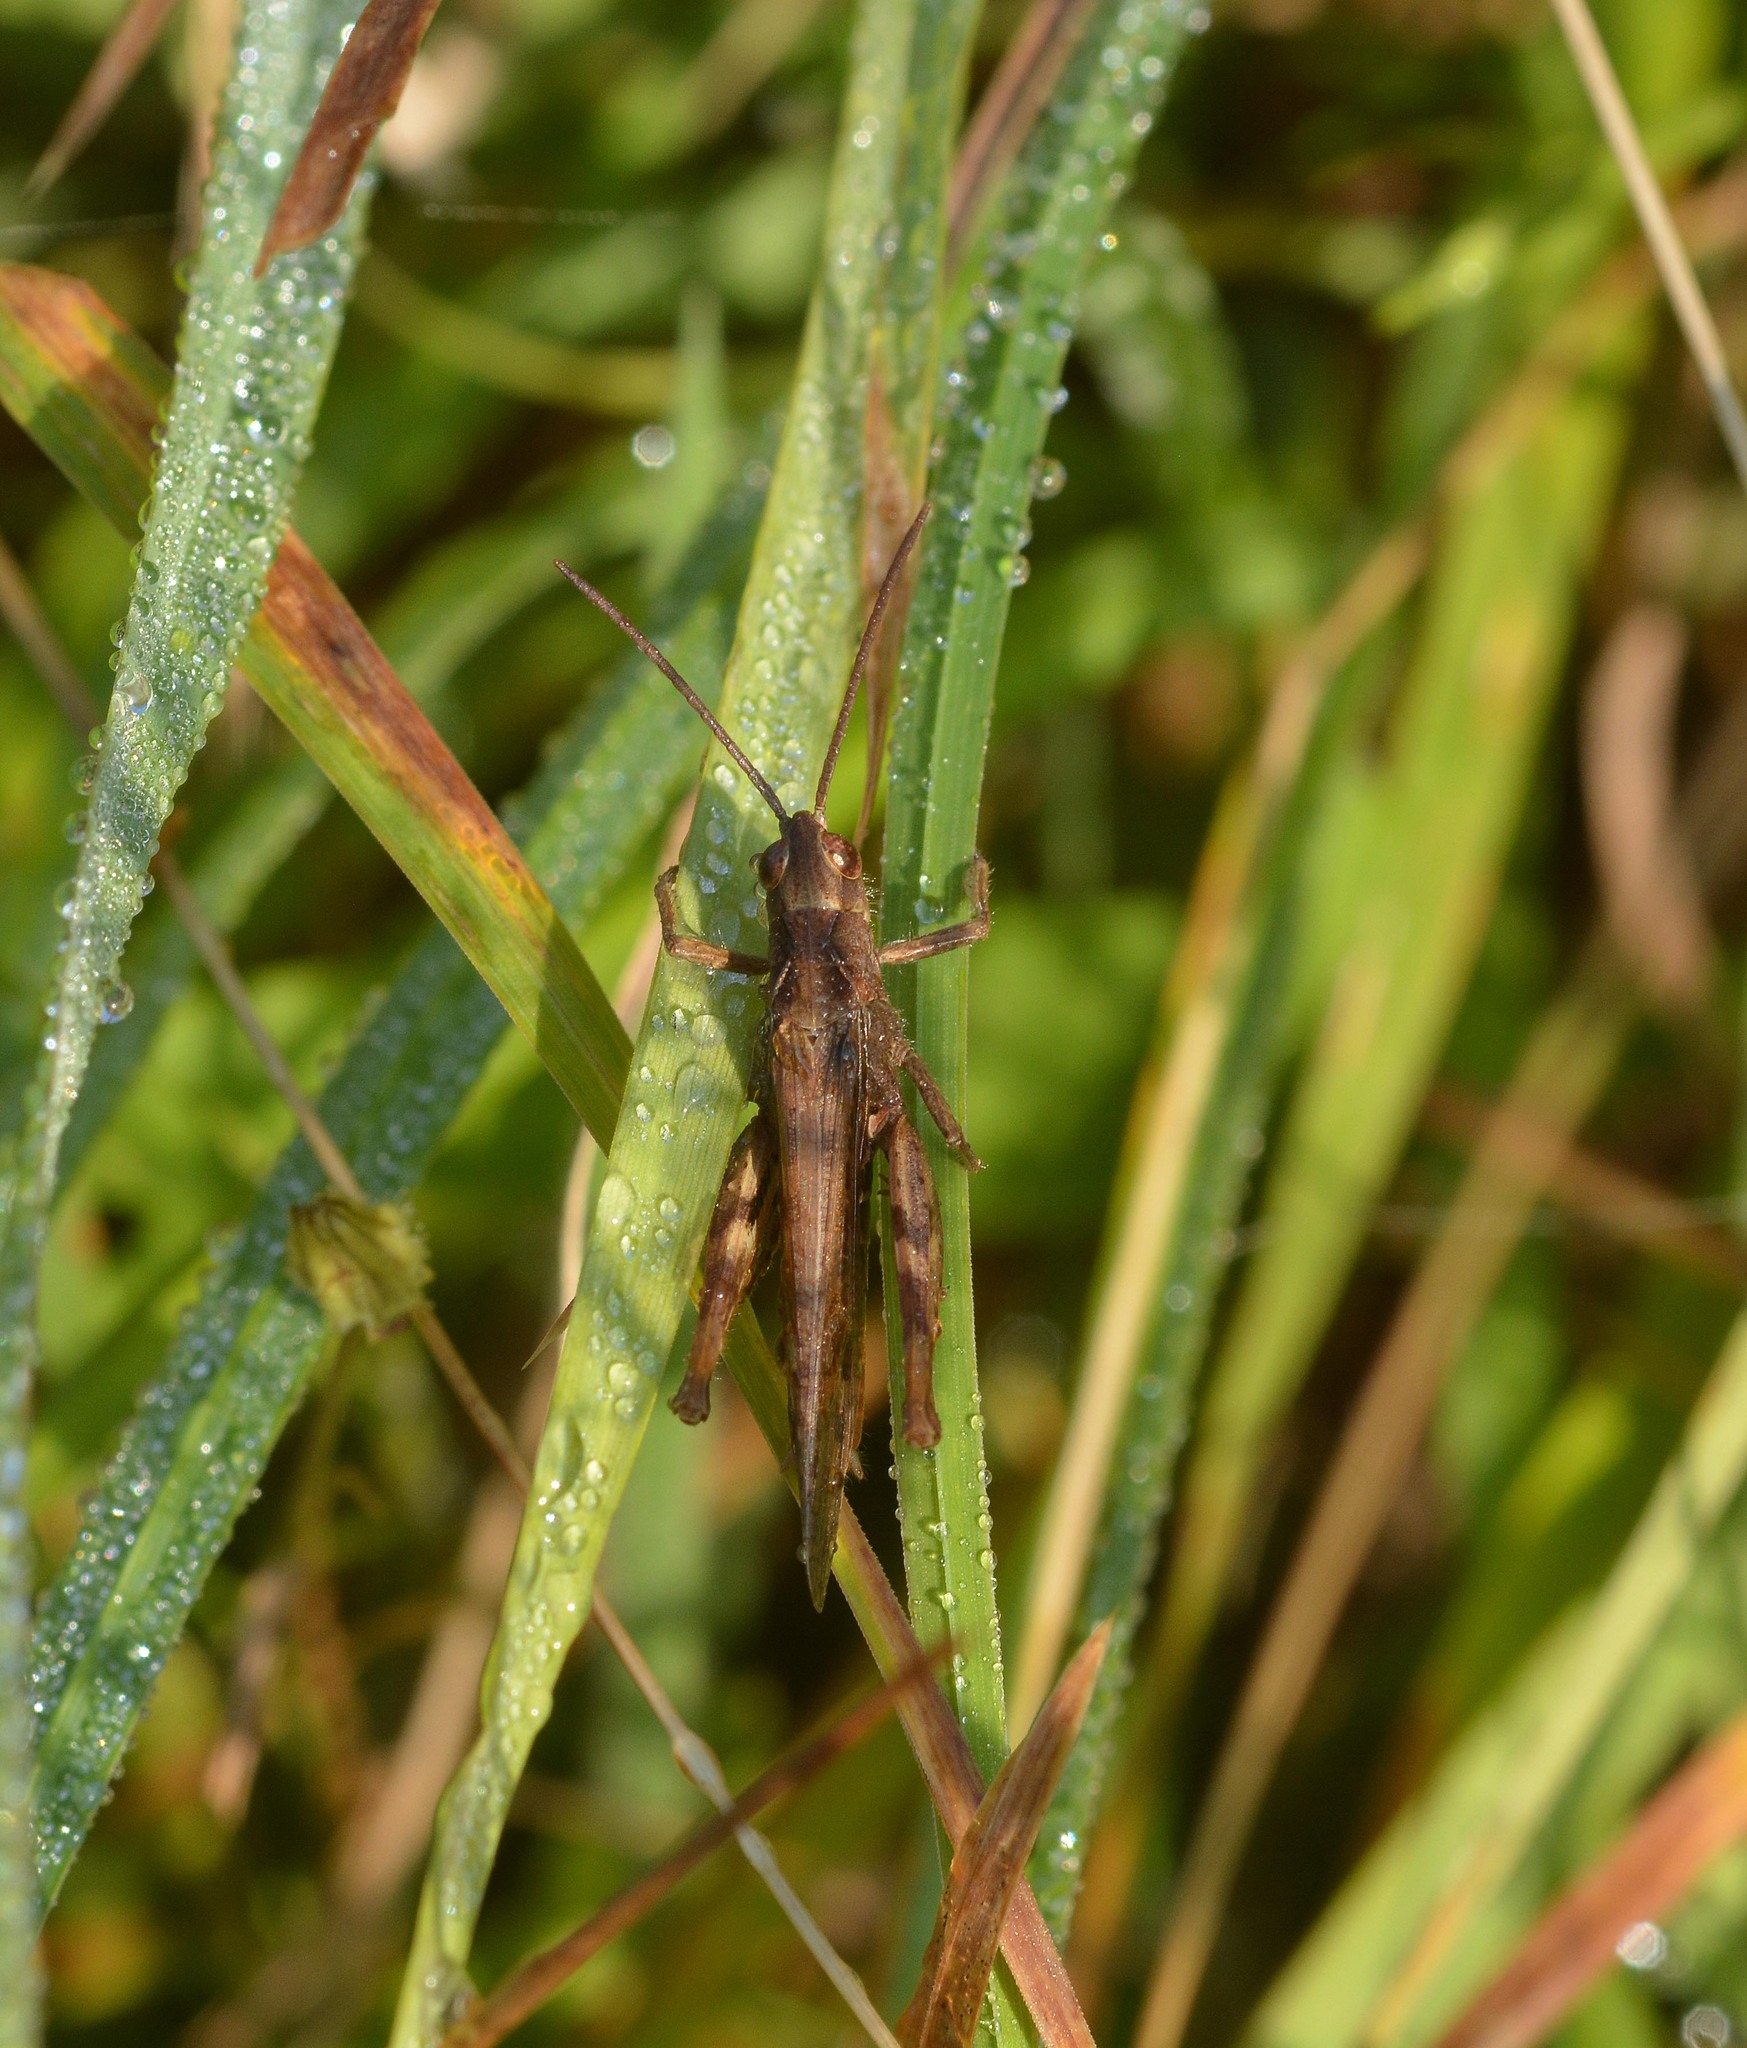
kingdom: Animalia
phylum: Arthropoda
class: Insecta
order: Orthoptera
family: Acrididae
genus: Chorthippus
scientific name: Chorthippus brunneus
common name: Field grasshopper
